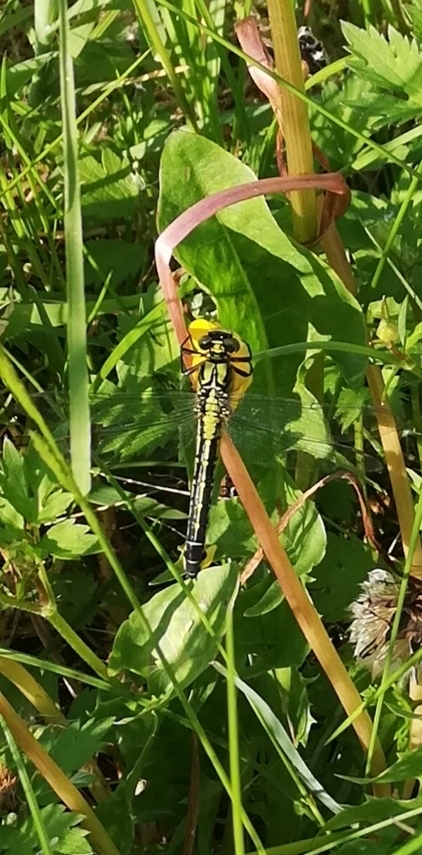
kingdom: Animalia
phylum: Arthropoda
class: Insecta
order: Odonata
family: Gomphidae
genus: Gomphus
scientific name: Gomphus vulgatissimus
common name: Club-tailed dragonfly
